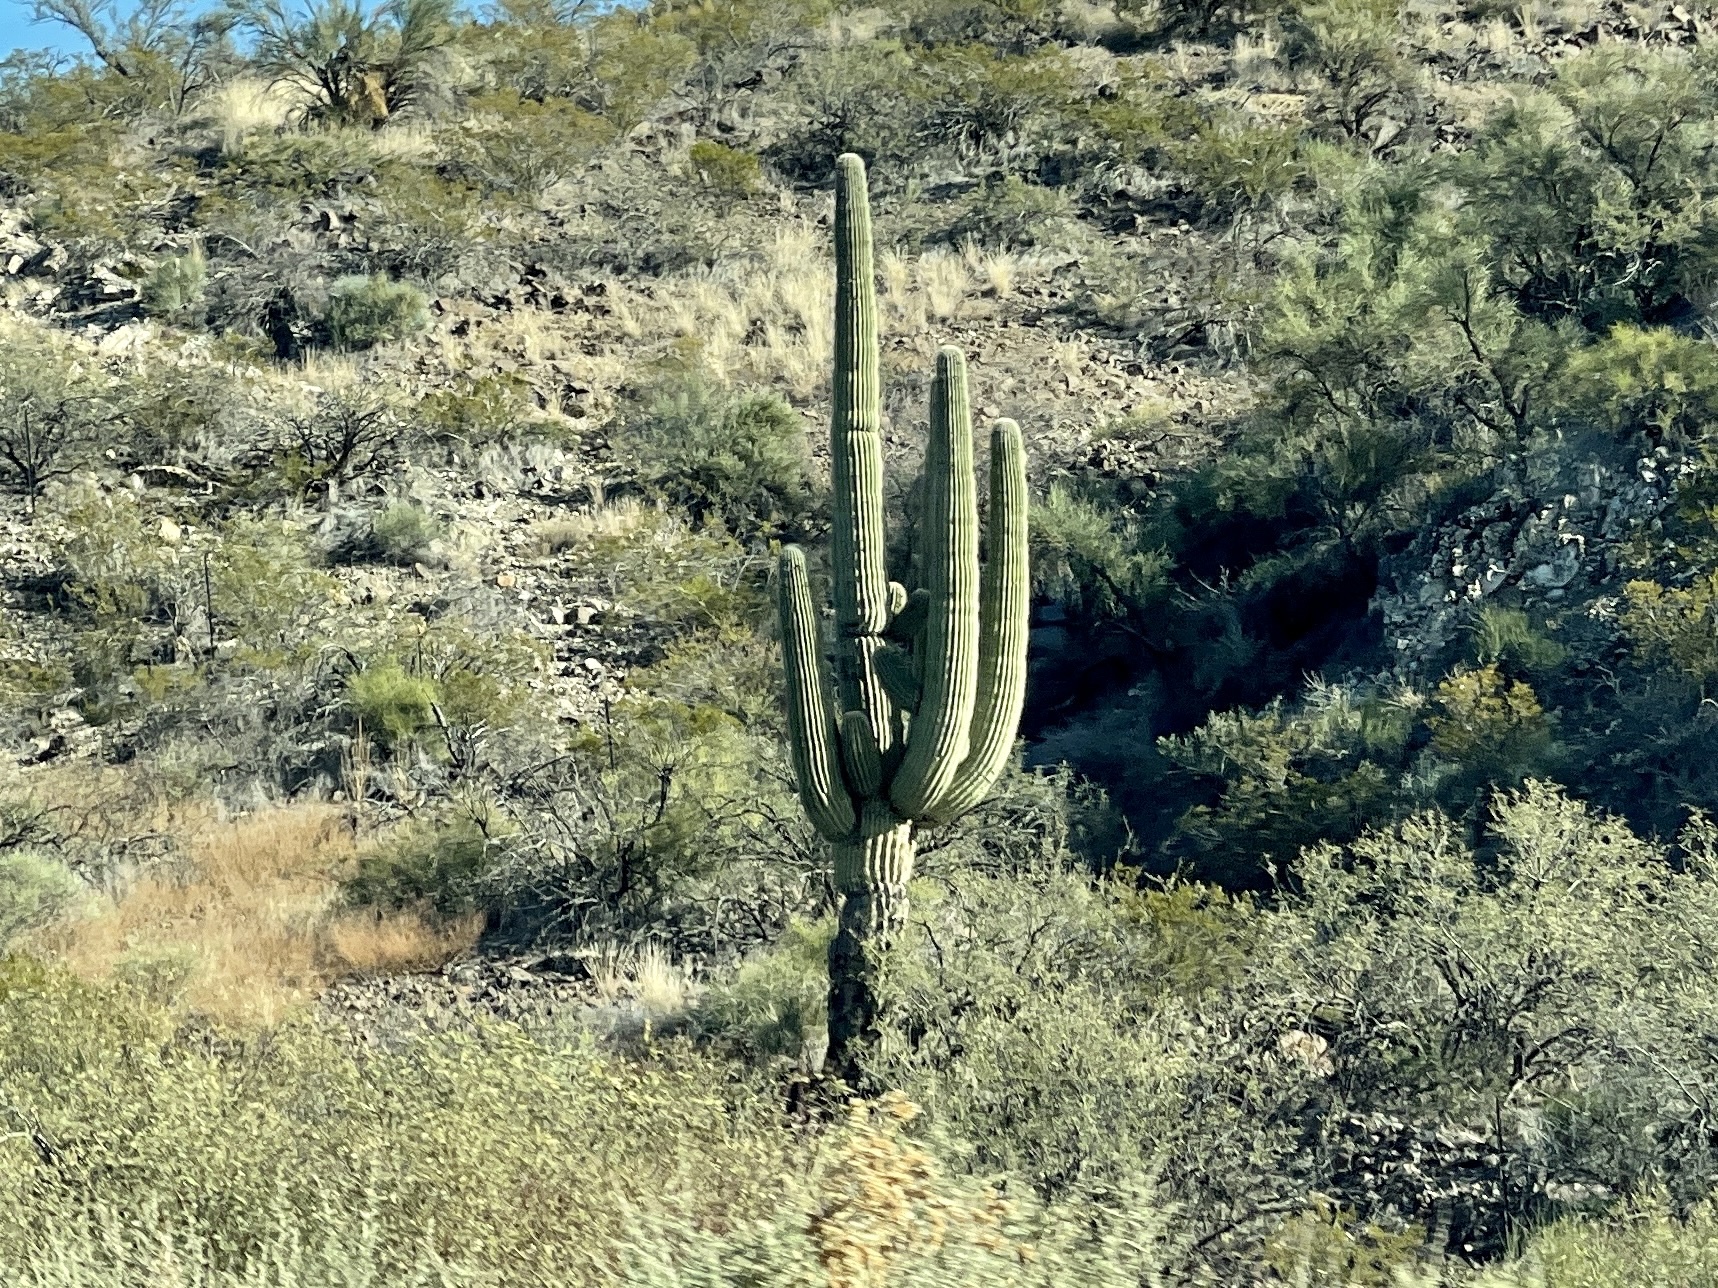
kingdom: Plantae
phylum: Tracheophyta
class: Magnoliopsida
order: Caryophyllales
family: Cactaceae
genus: Carnegiea
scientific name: Carnegiea gigantea
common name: Saguaro
